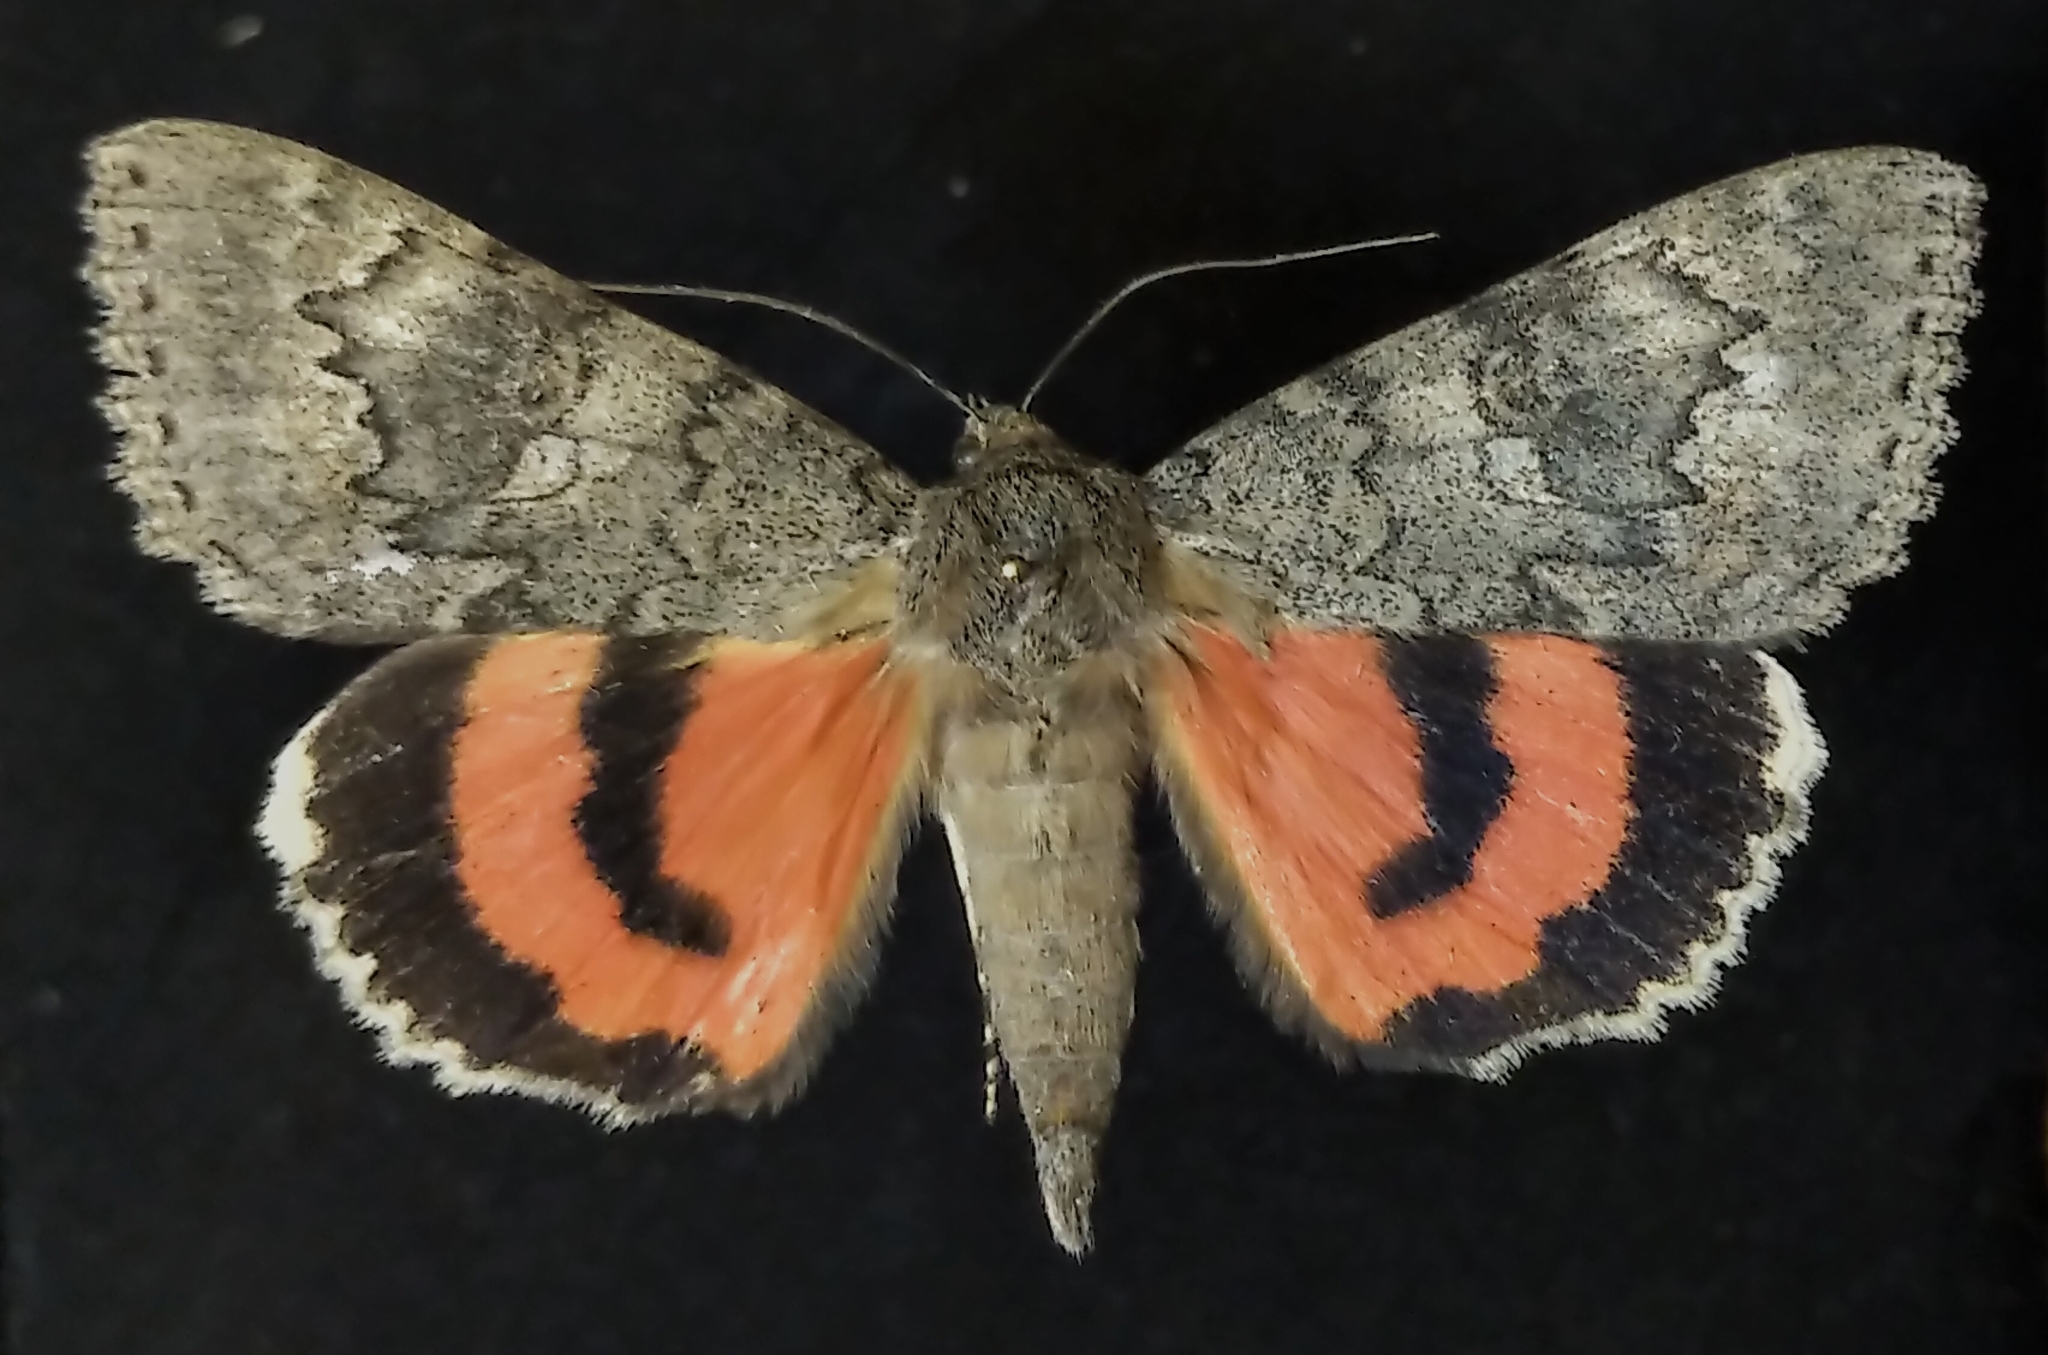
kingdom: Animalia
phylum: Arthropoda
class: Insecta
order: Lepidoptera
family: Erebidae
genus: Catocala
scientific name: Catocala californica
